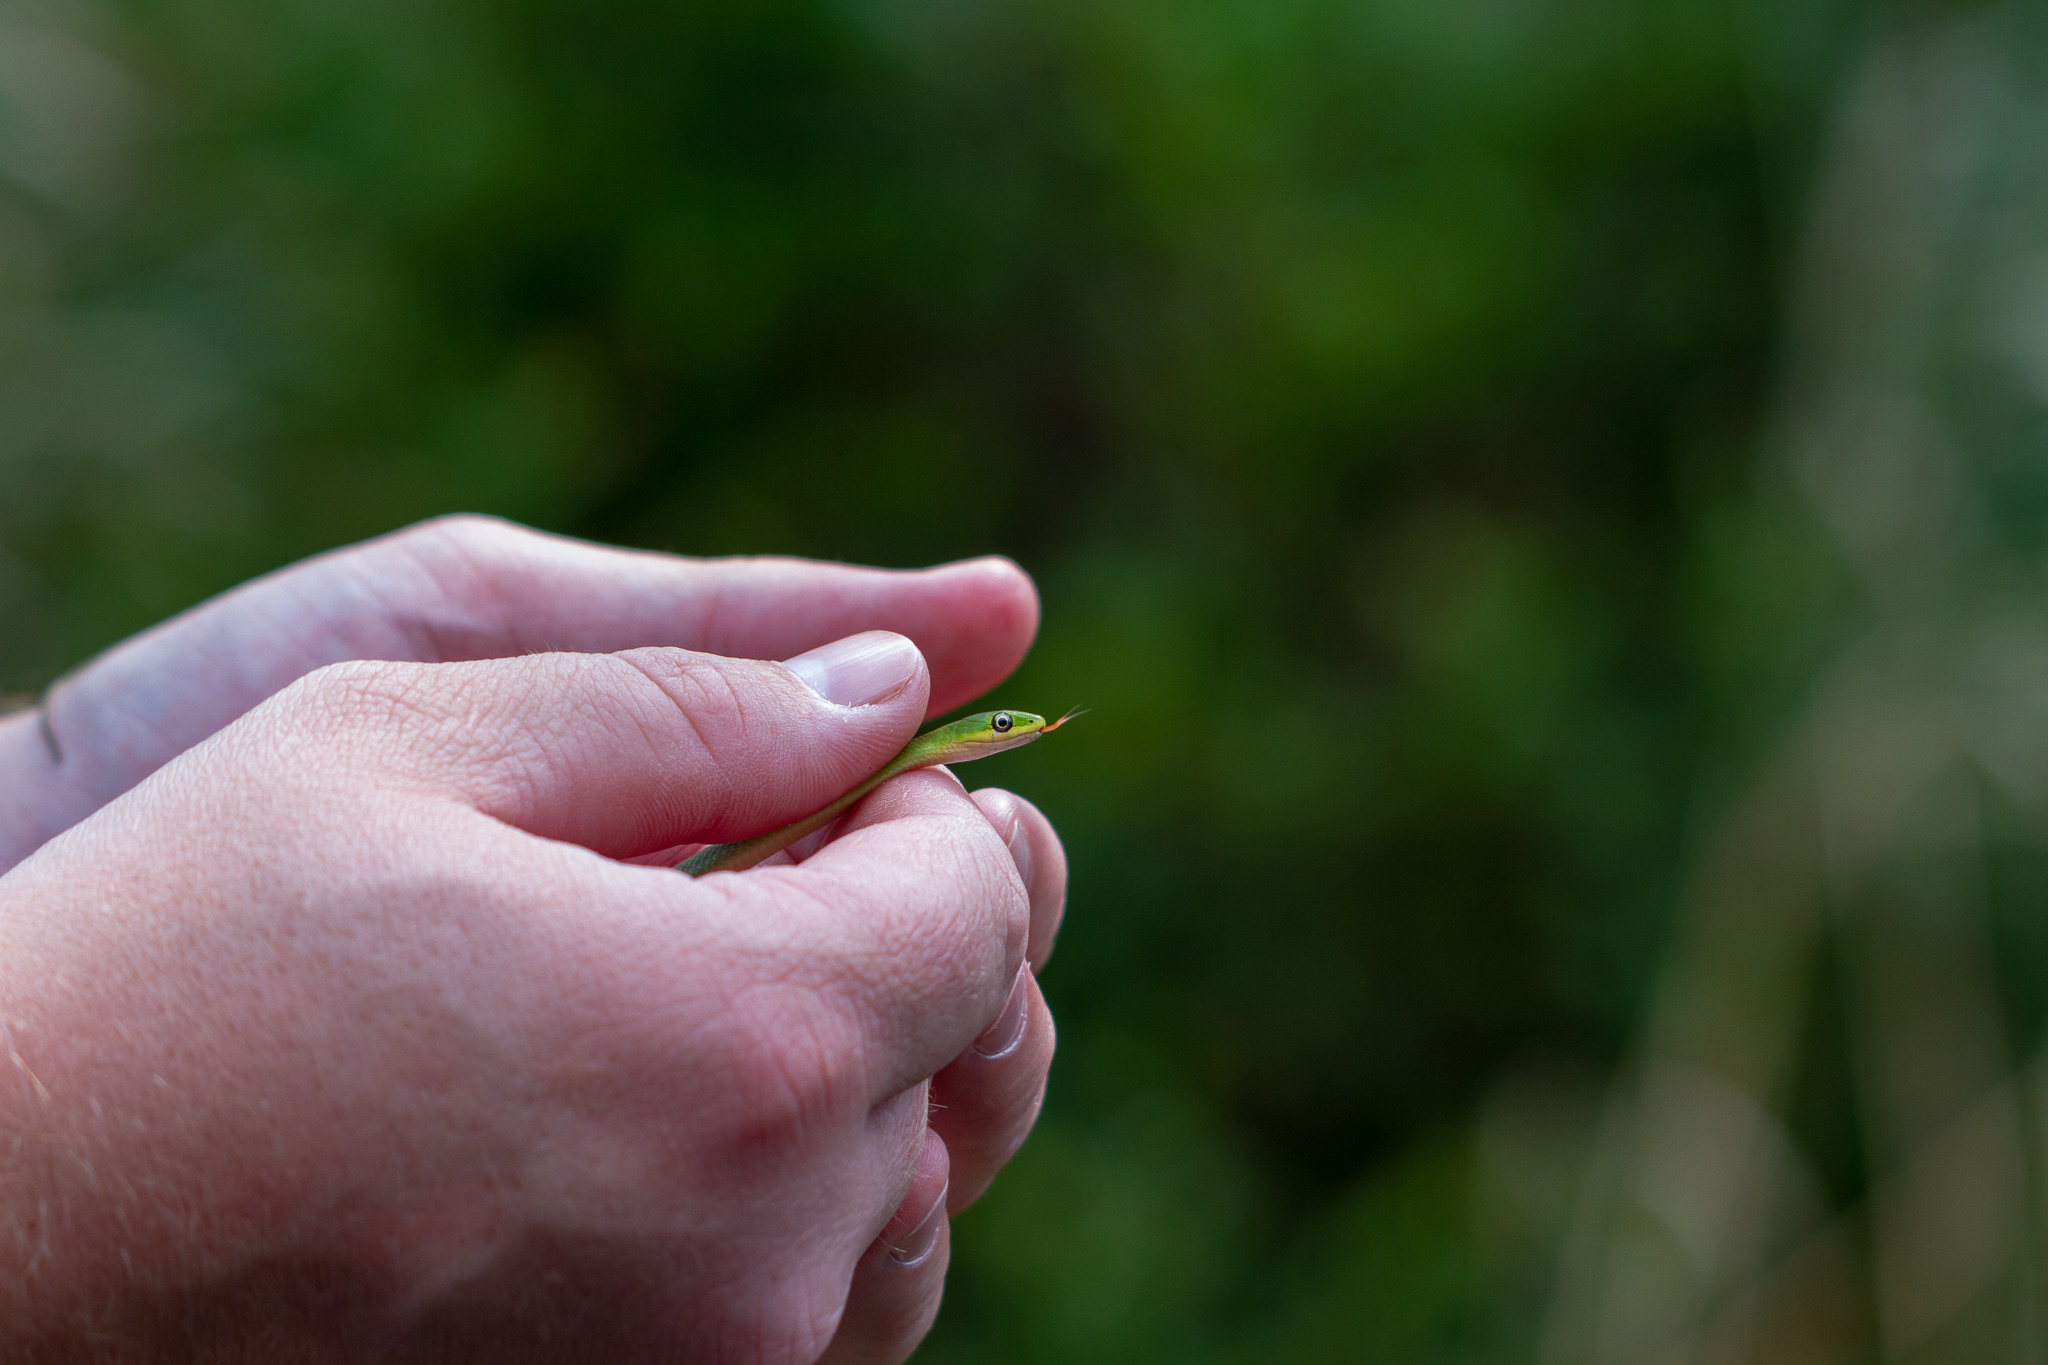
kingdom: Animalia
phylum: Chordata
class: Squamata
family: Colubridae
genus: Opheodrys
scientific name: Opheodrys aestivus
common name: Rough greensnake
